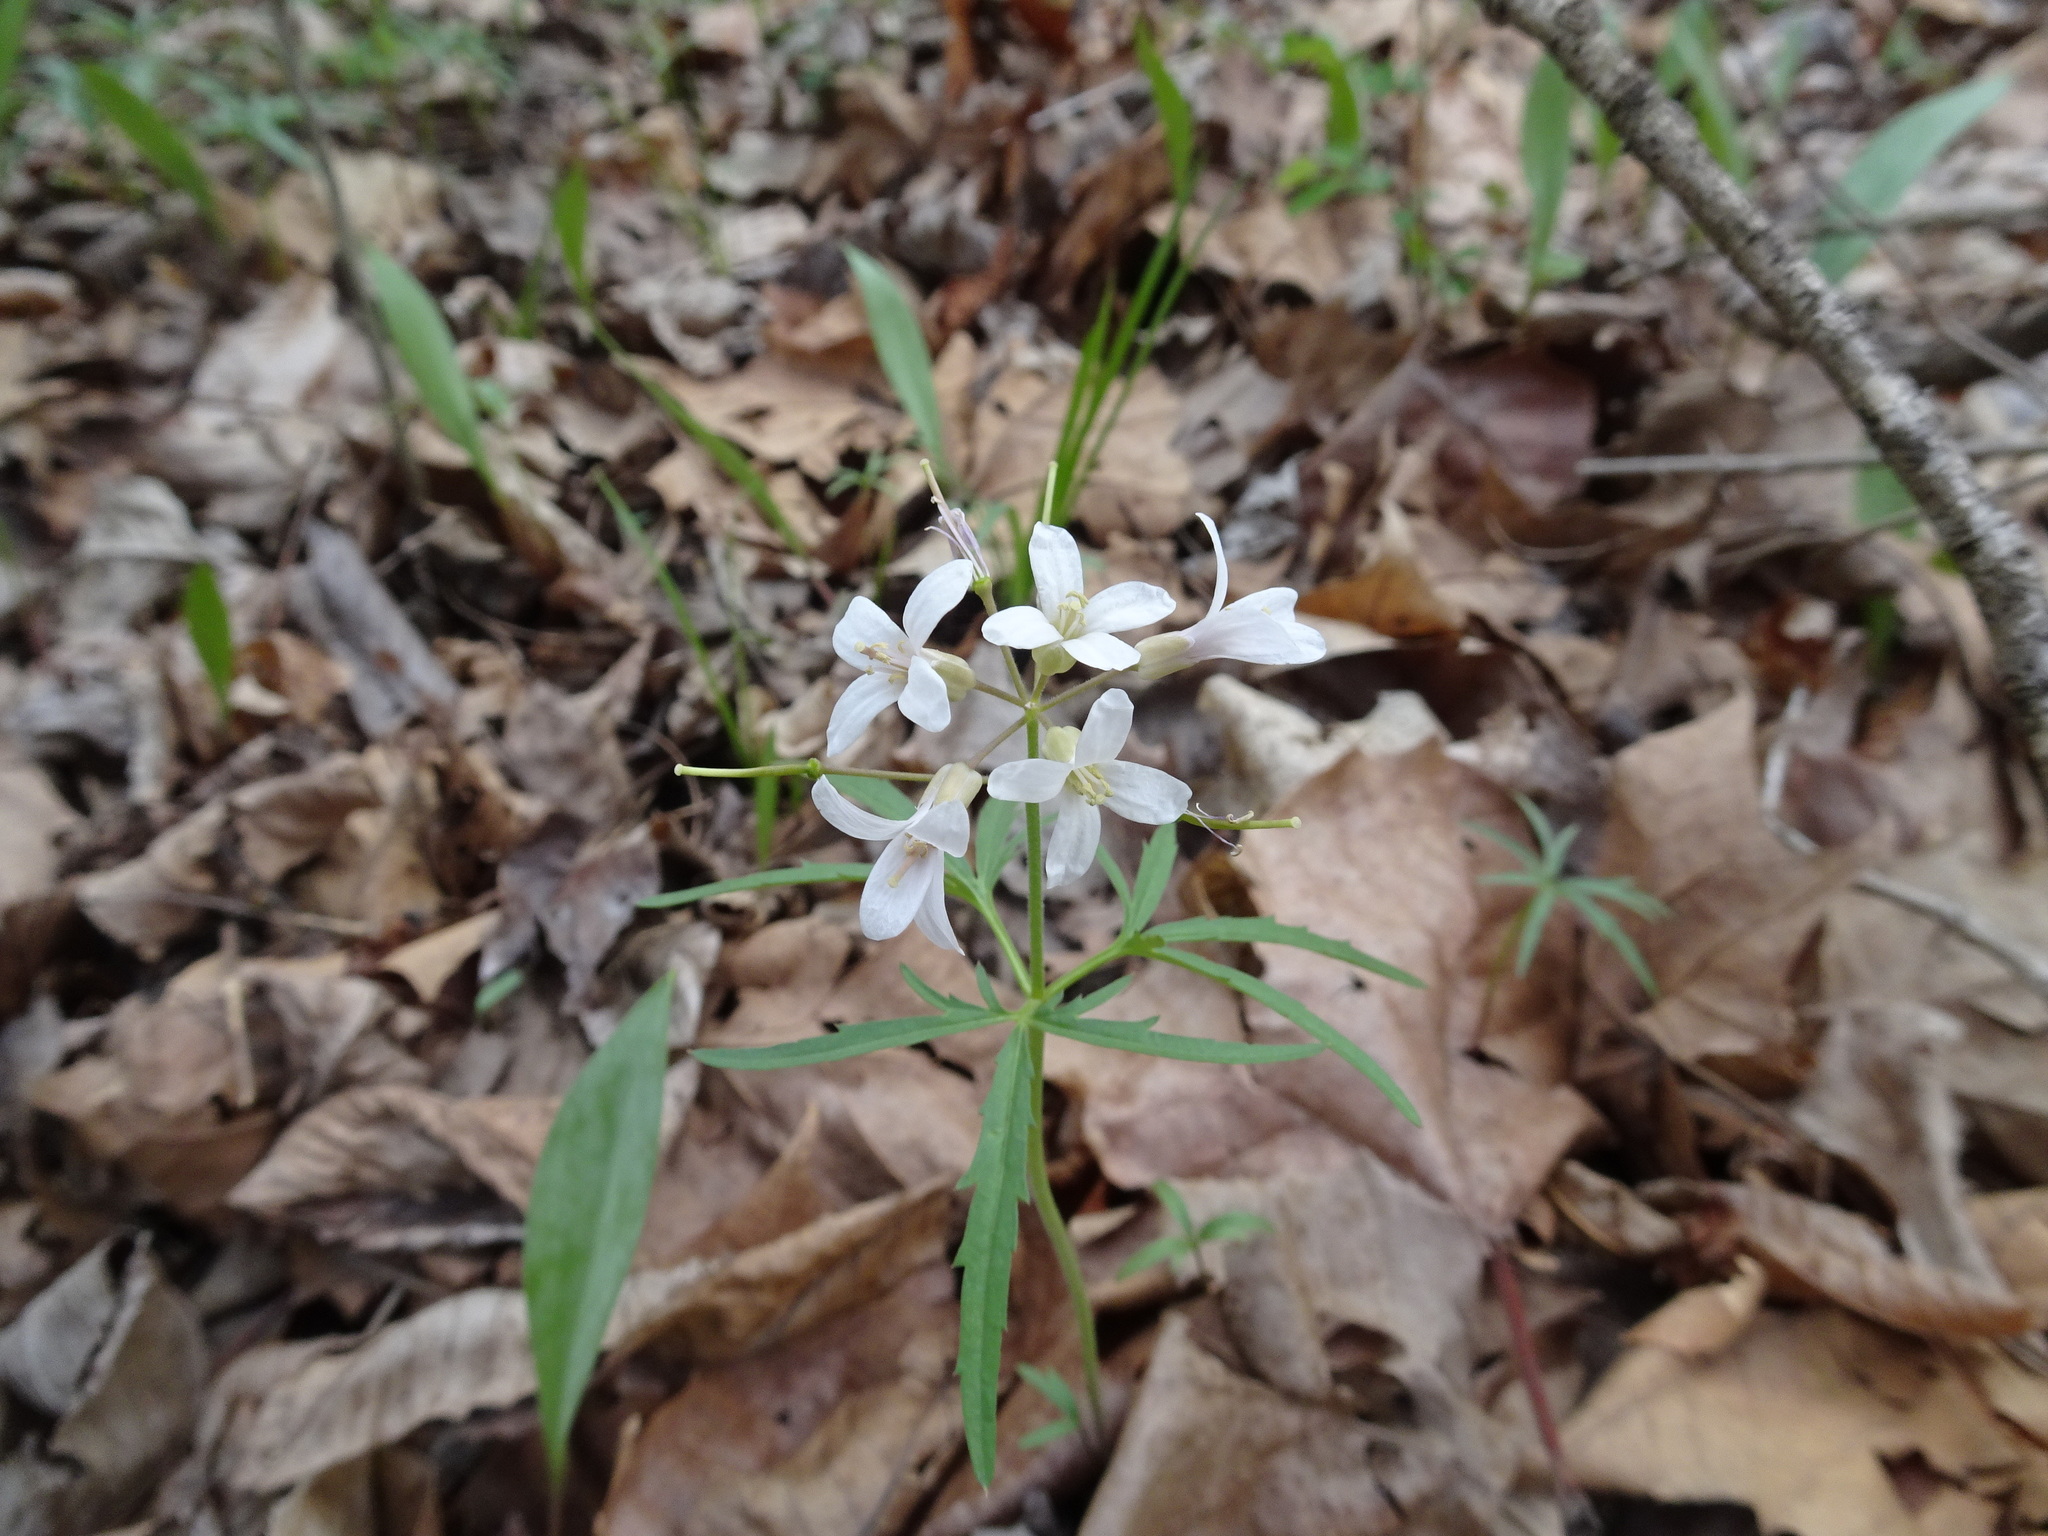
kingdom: Plantae
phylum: Tracheophyta
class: Magnoliopsida
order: Brassicales
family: Brassicaceae
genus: Cardamine
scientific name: Cardamine concatenata
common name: Cut-leaf toothcup
